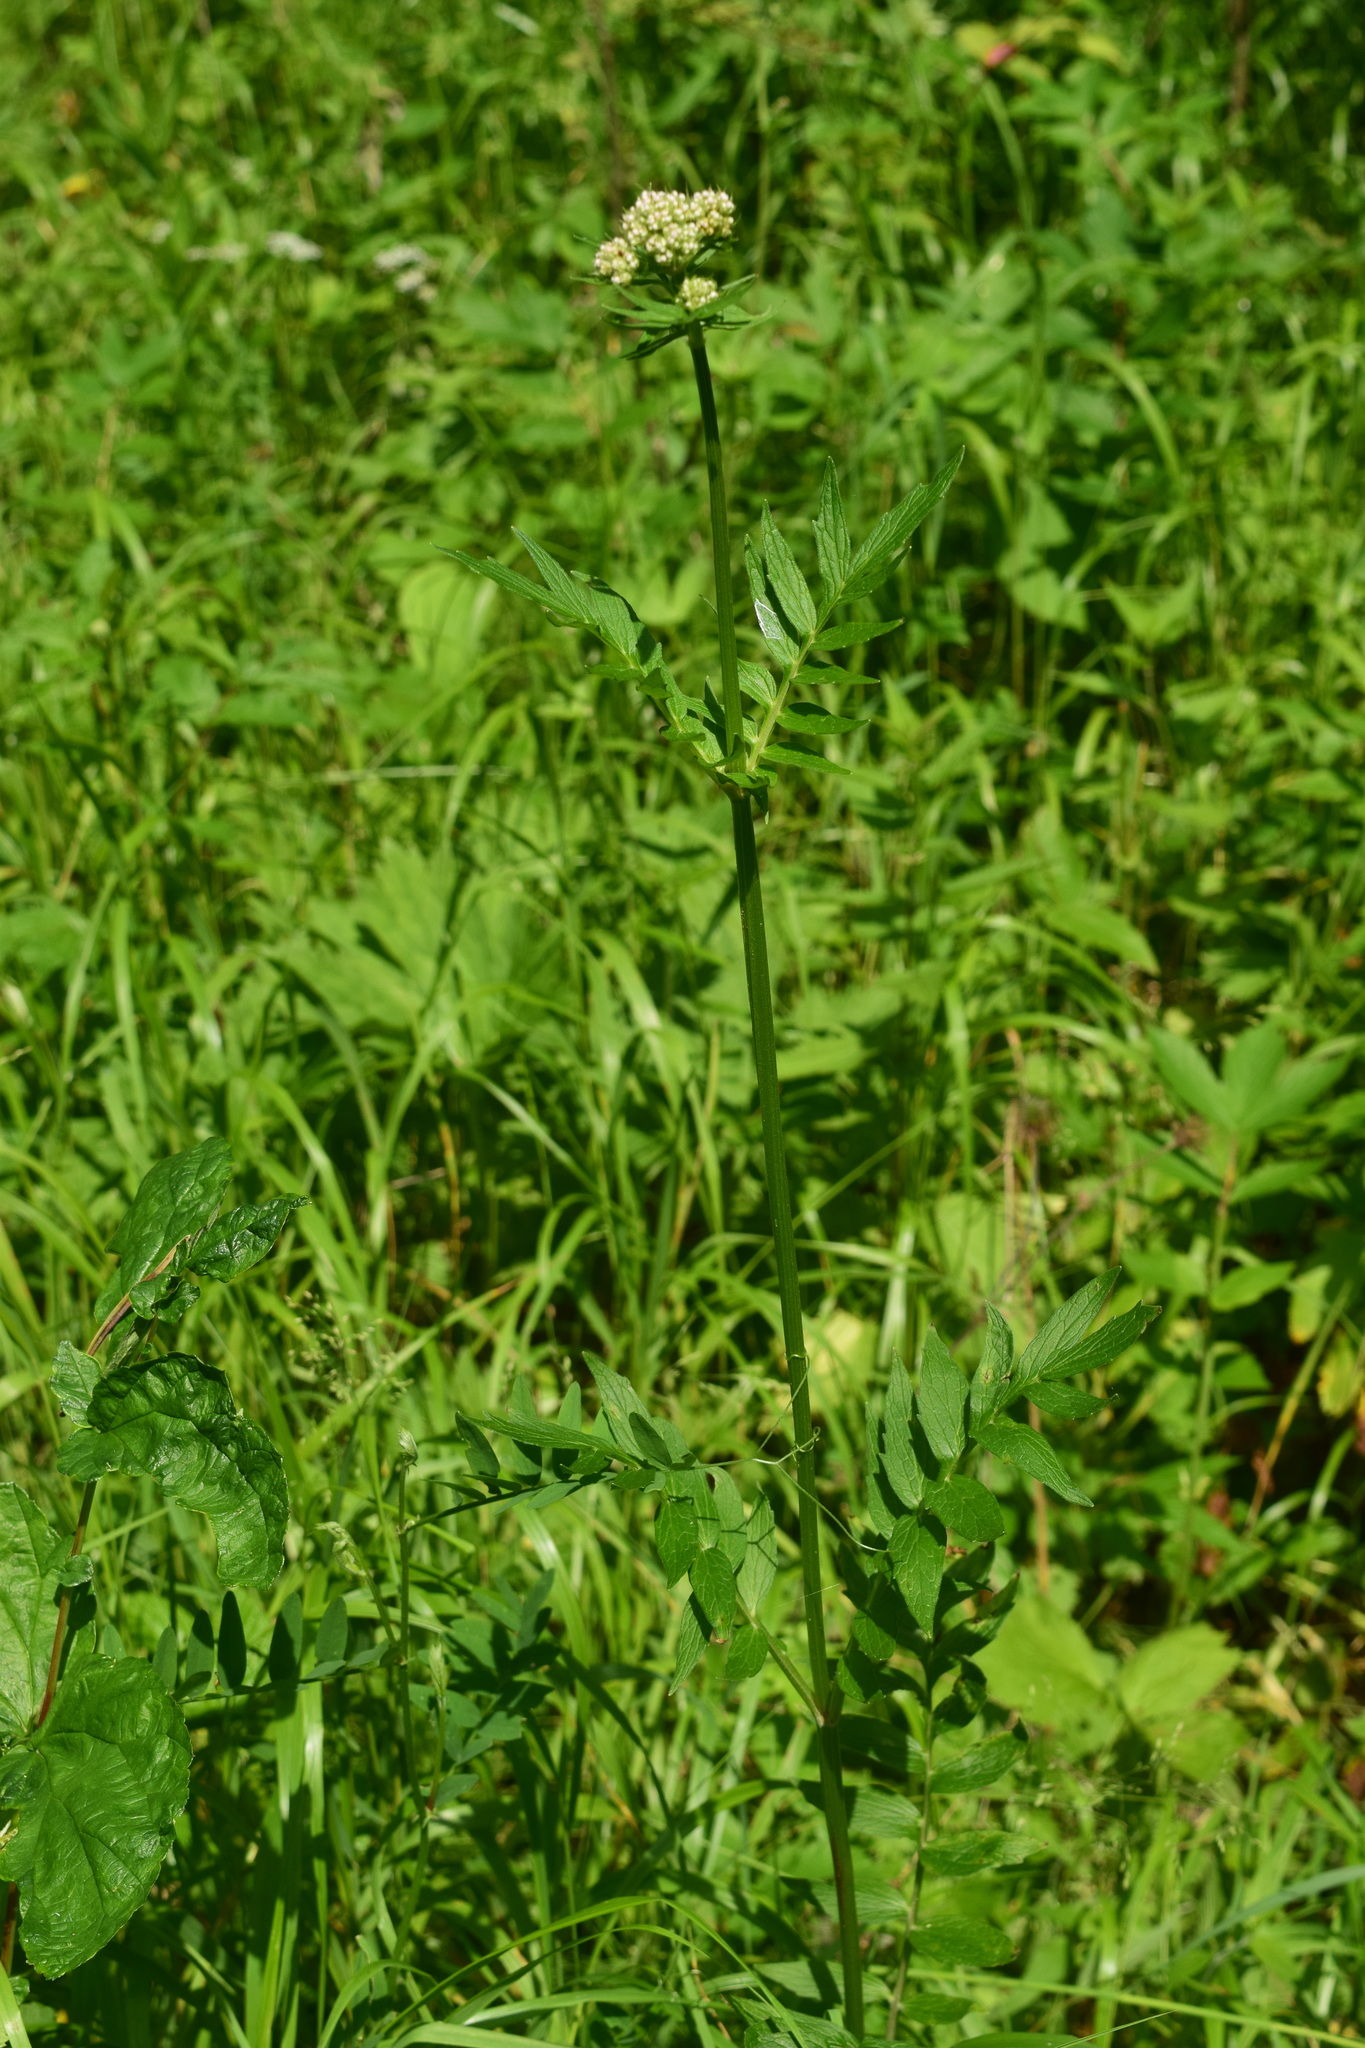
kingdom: Plantae
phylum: Tracheophyta
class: Magnoliopsida
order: Dipsacales
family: Caprifoliaceae
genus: Valeriana
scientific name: Valeriana officinalis
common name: Common valerian
